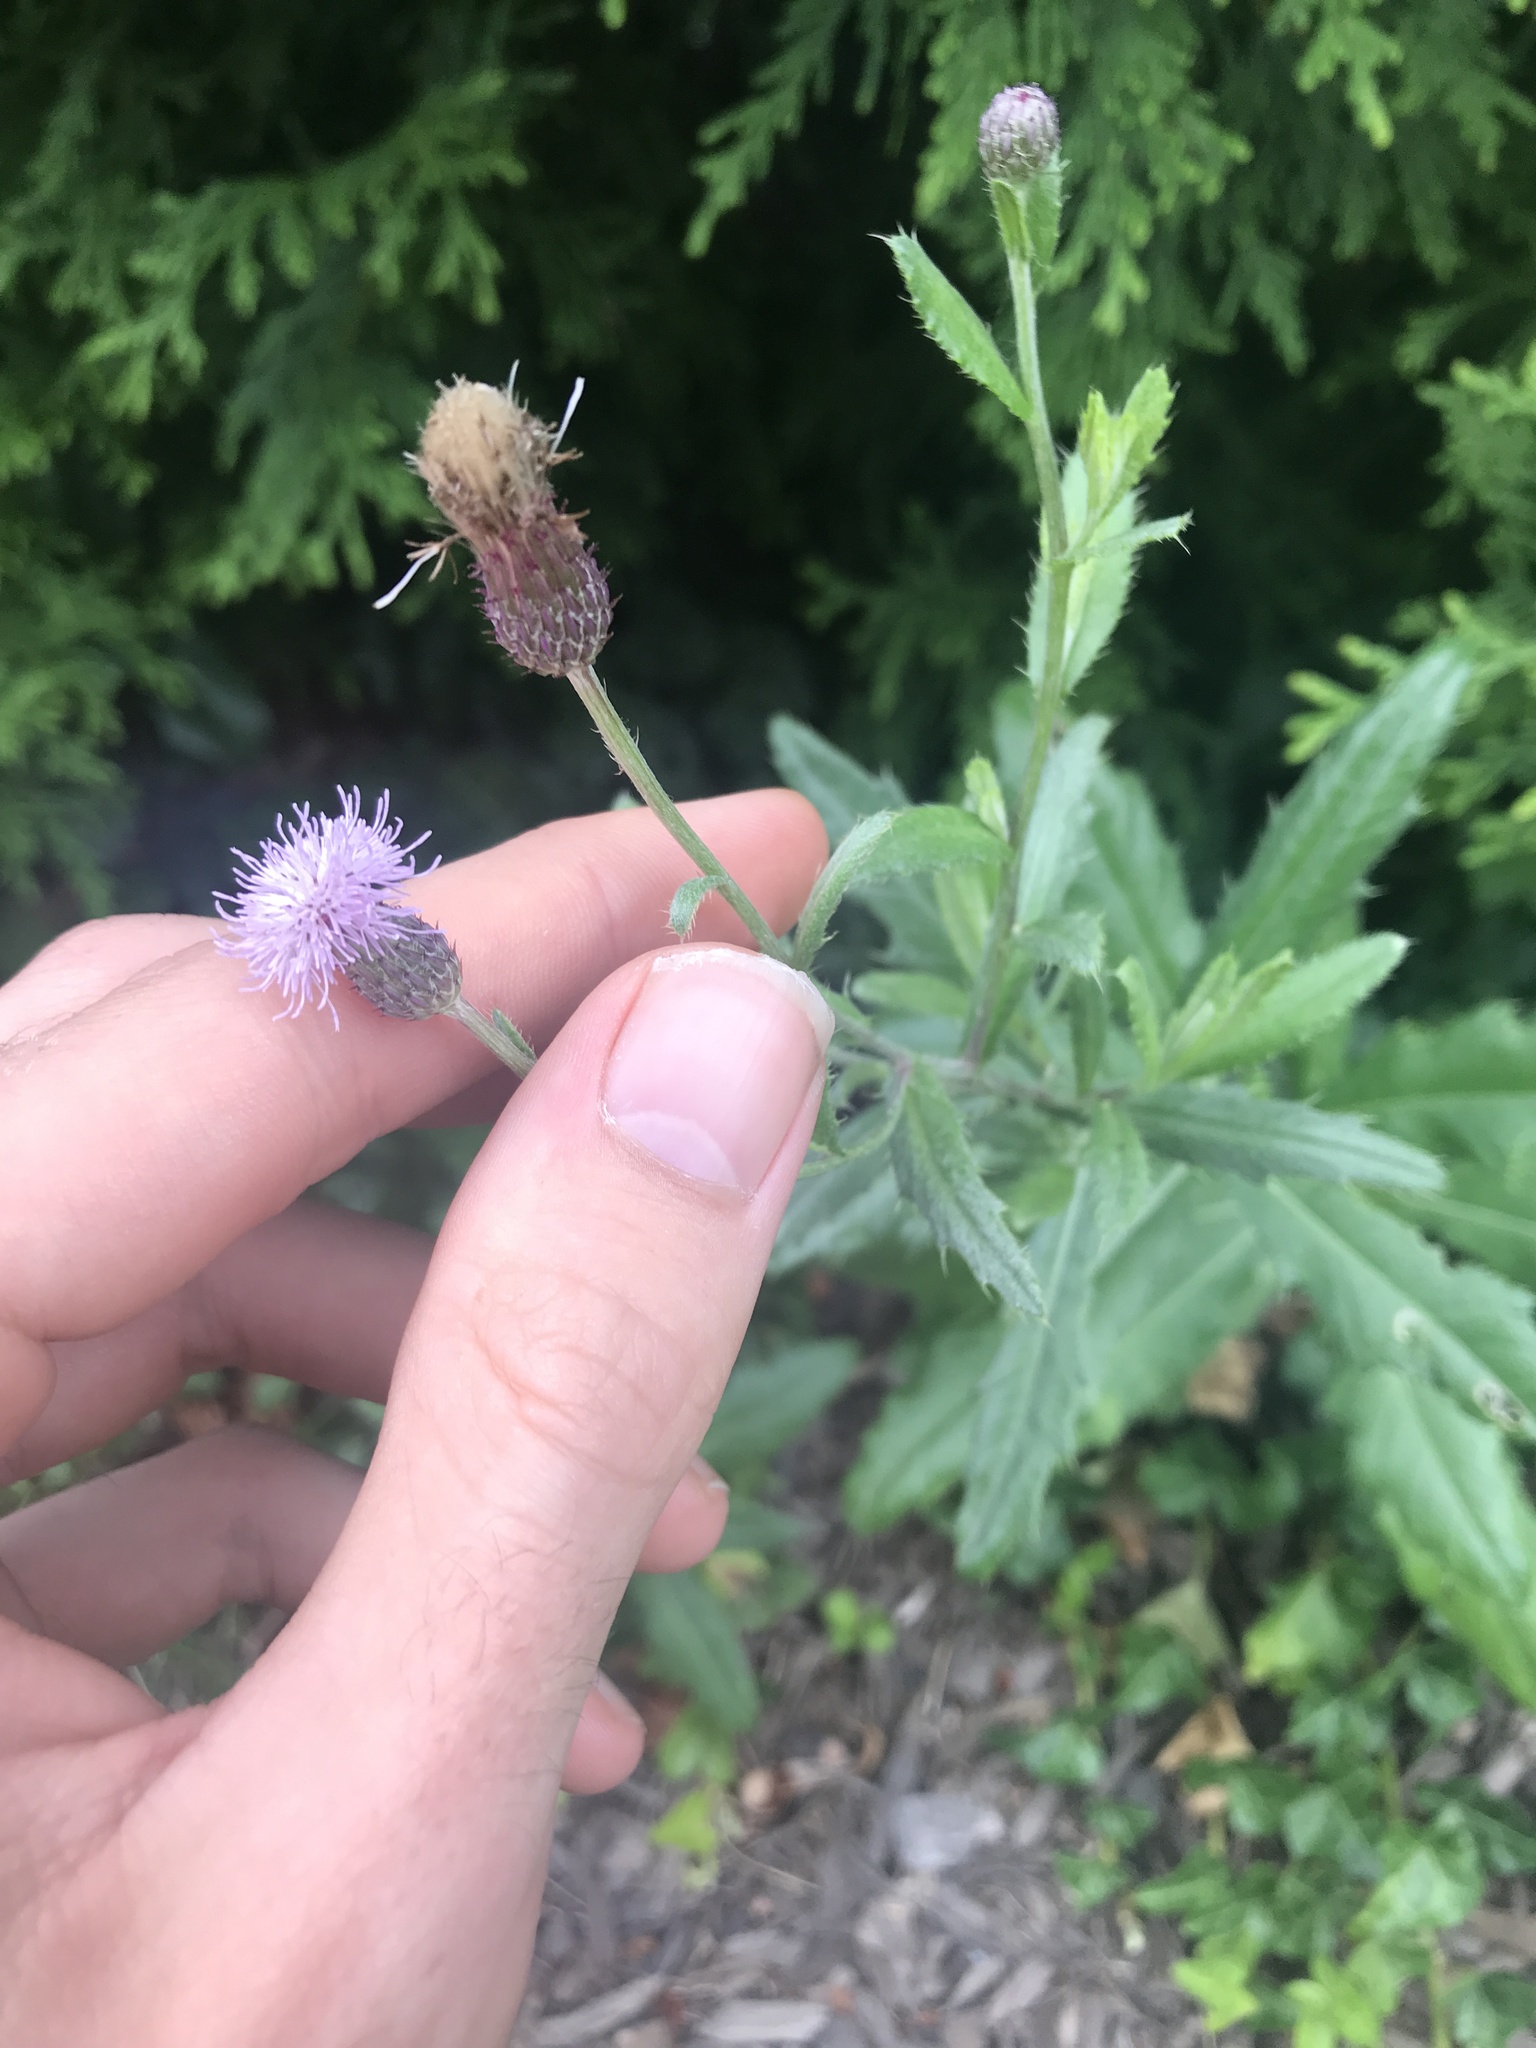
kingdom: Plantae
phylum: Tracheophyta
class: Magnoliopsida
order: Asterales
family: Asteraceae
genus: Cirsium
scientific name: Cirsium arvense
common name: Creeping thistle
